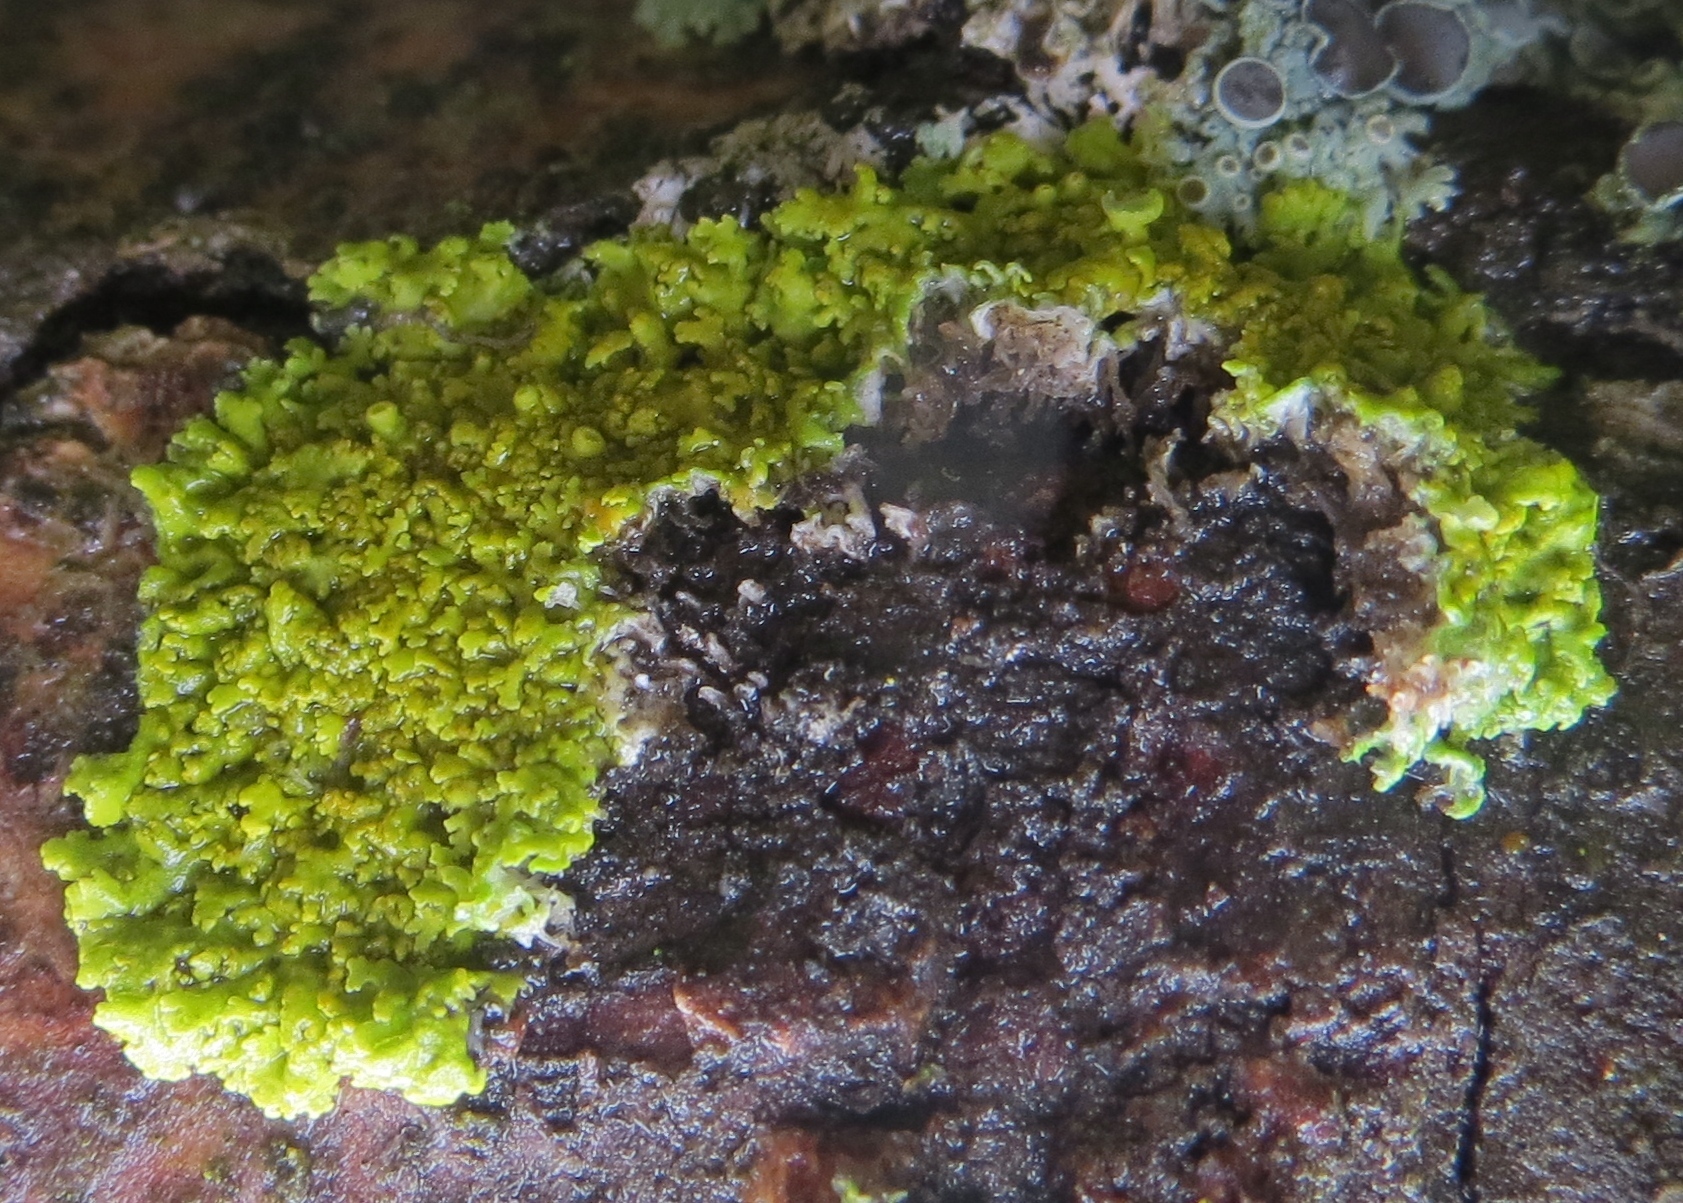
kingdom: Fungi
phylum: Ascomycota
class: Lecanoromycetes
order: Teloschistales
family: Teloschistaceae
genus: Gallowayella
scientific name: Gallowayella hasseana
